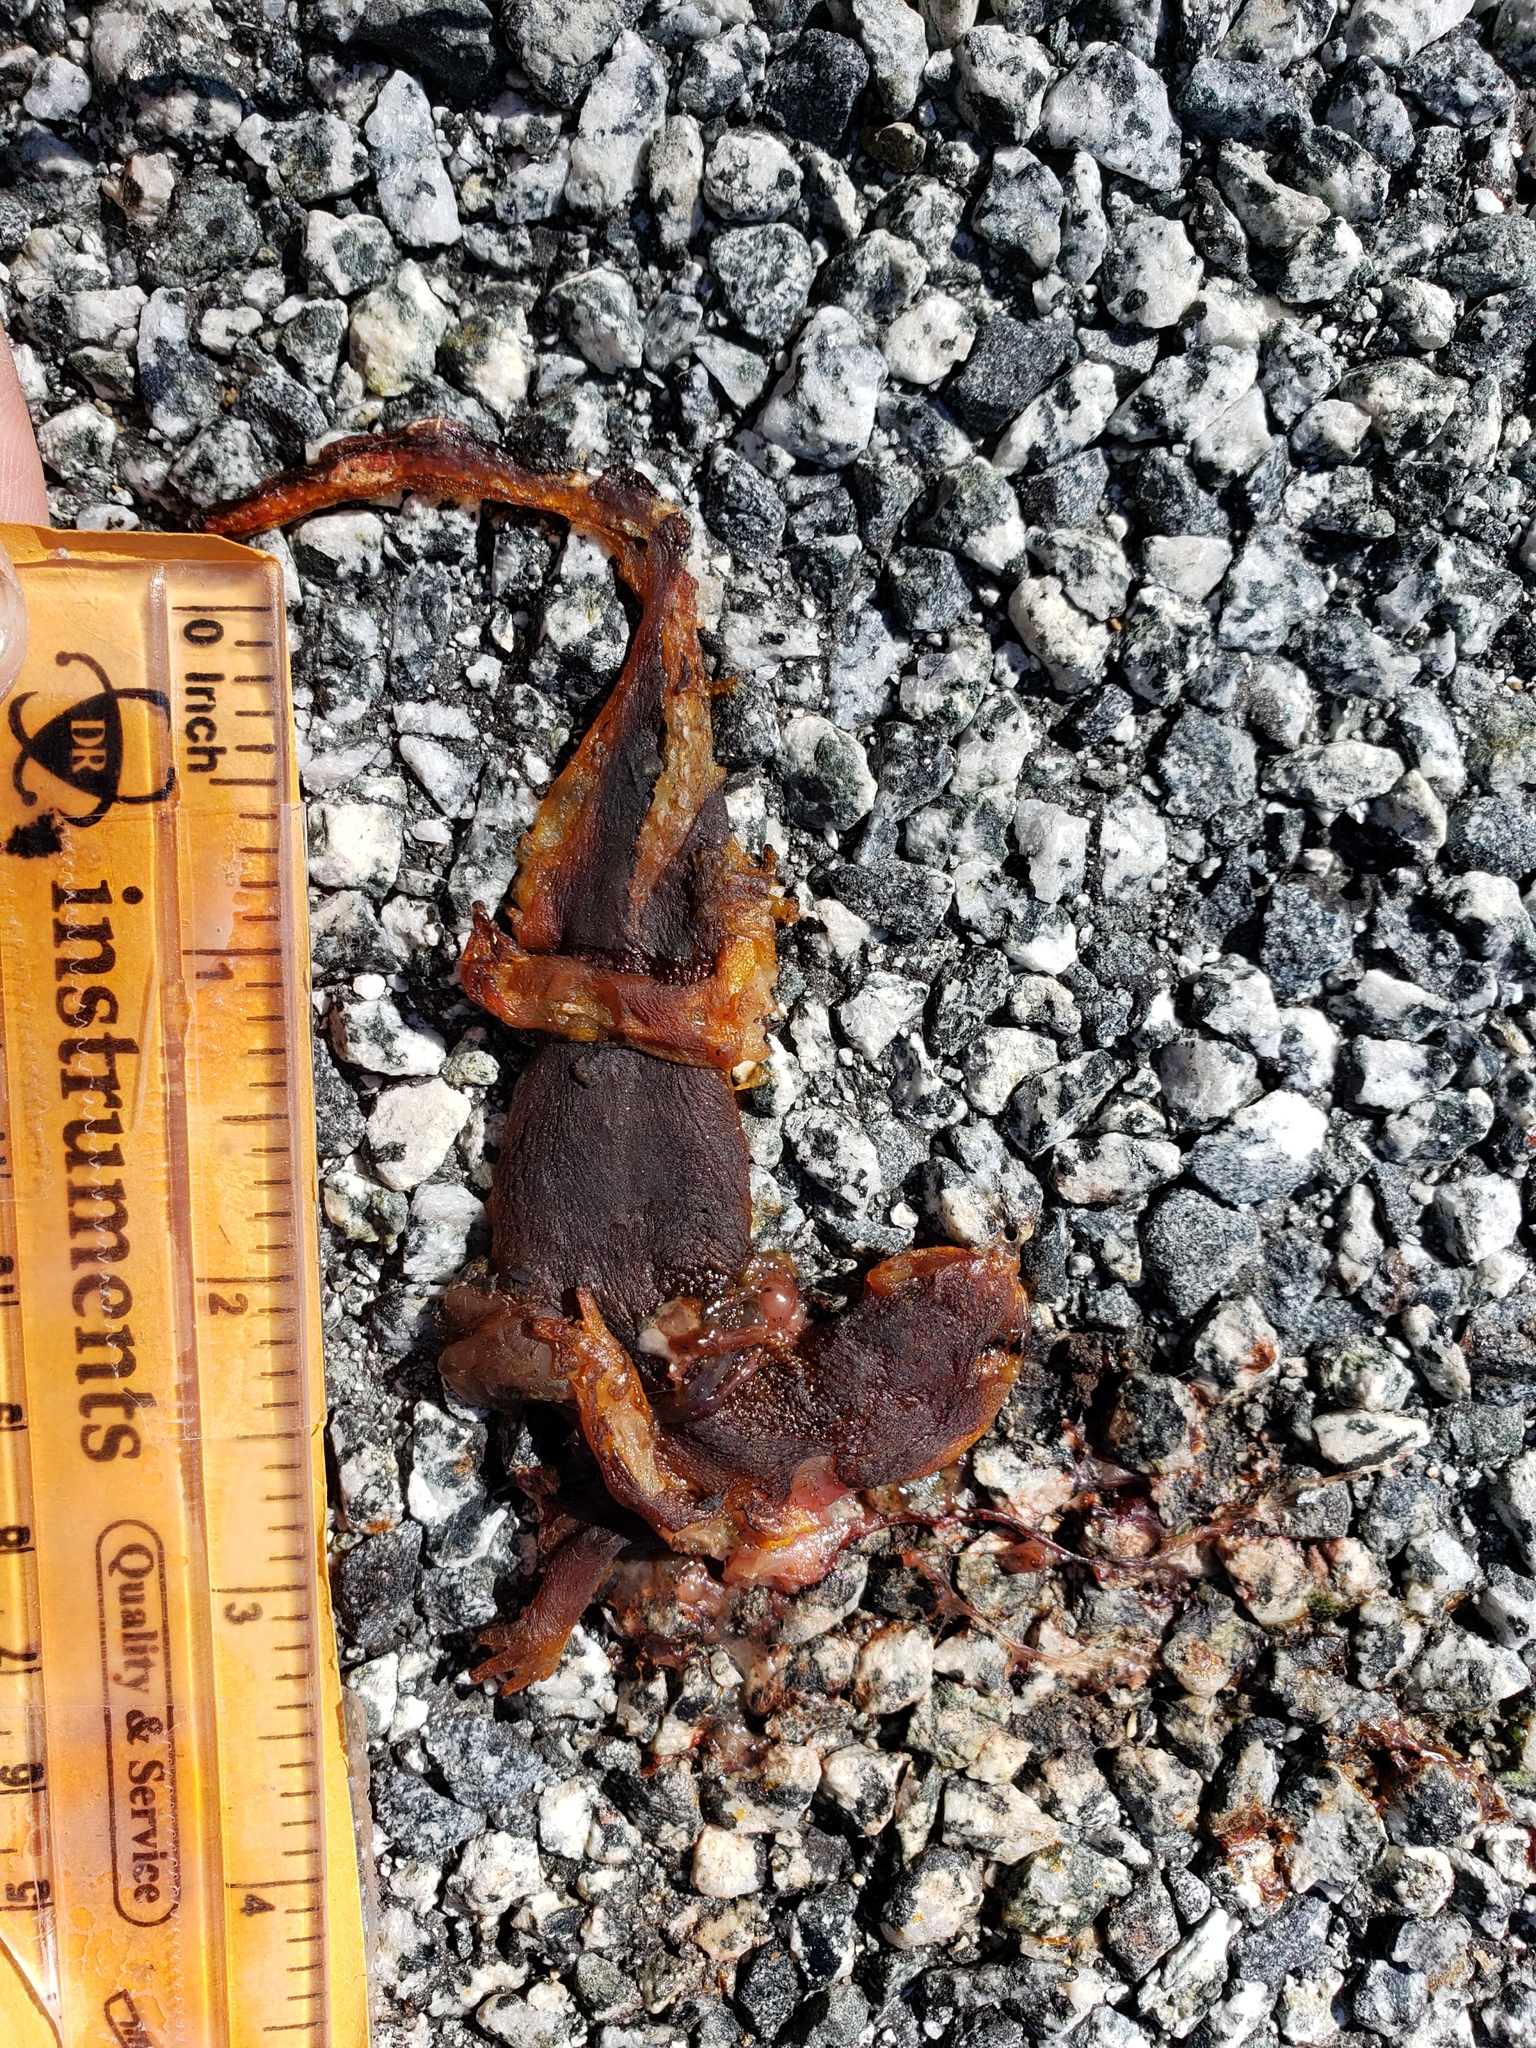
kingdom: Animalia
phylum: Chordata
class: Amphibia
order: Caudata
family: Salamandridae
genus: Taricha
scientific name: Taricha
